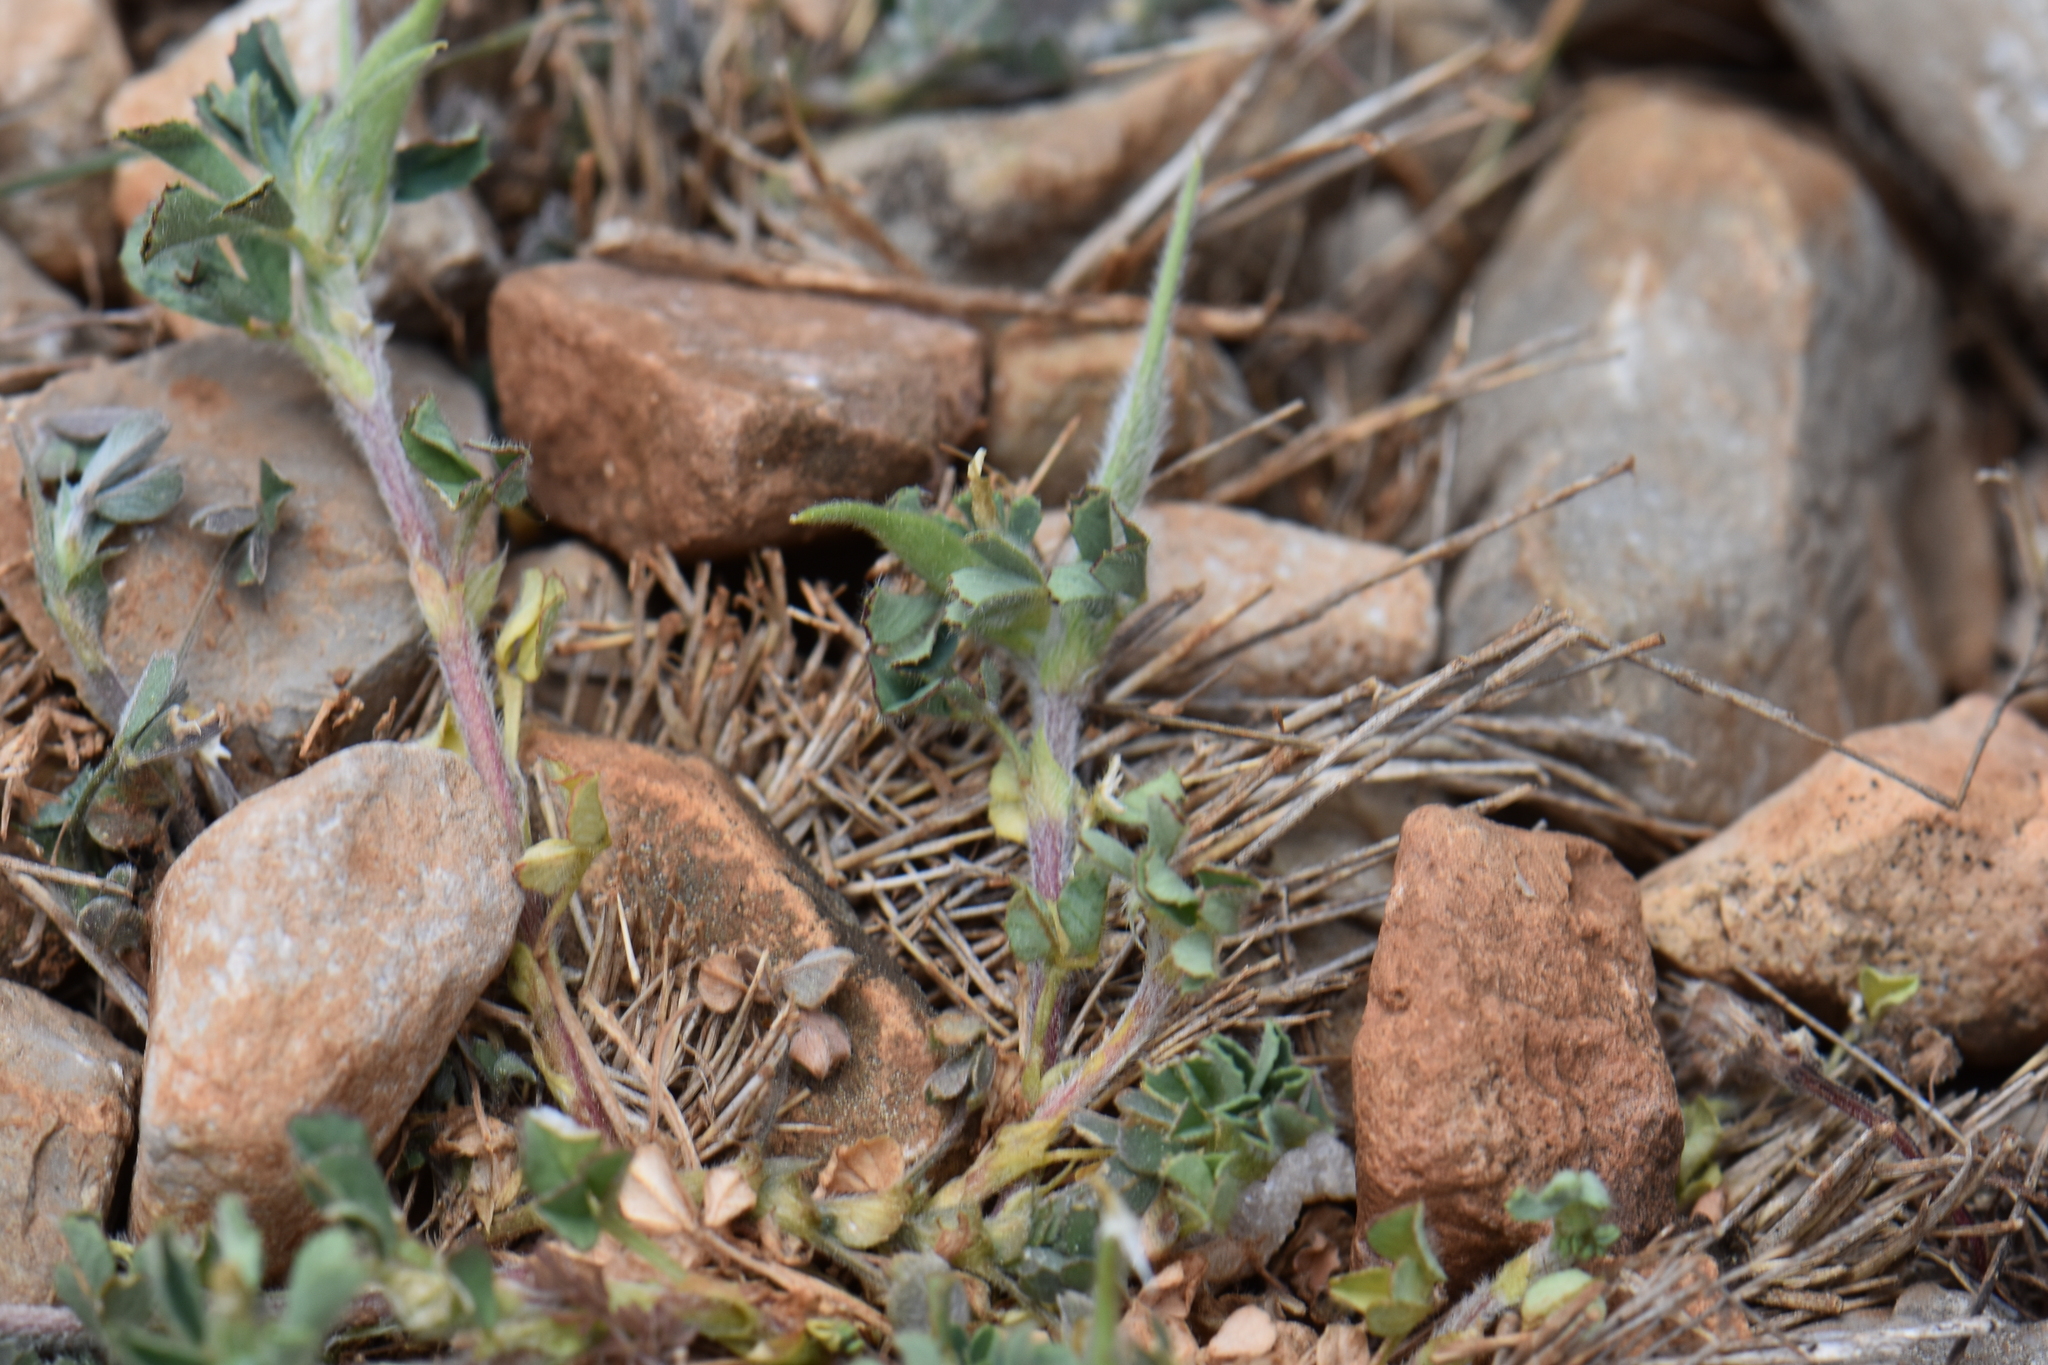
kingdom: Plantae
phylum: Tracheophyta
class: Magnoliopsida
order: Fabales
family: Fabaceae
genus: Trigonella
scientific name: Trigonella gladiata
